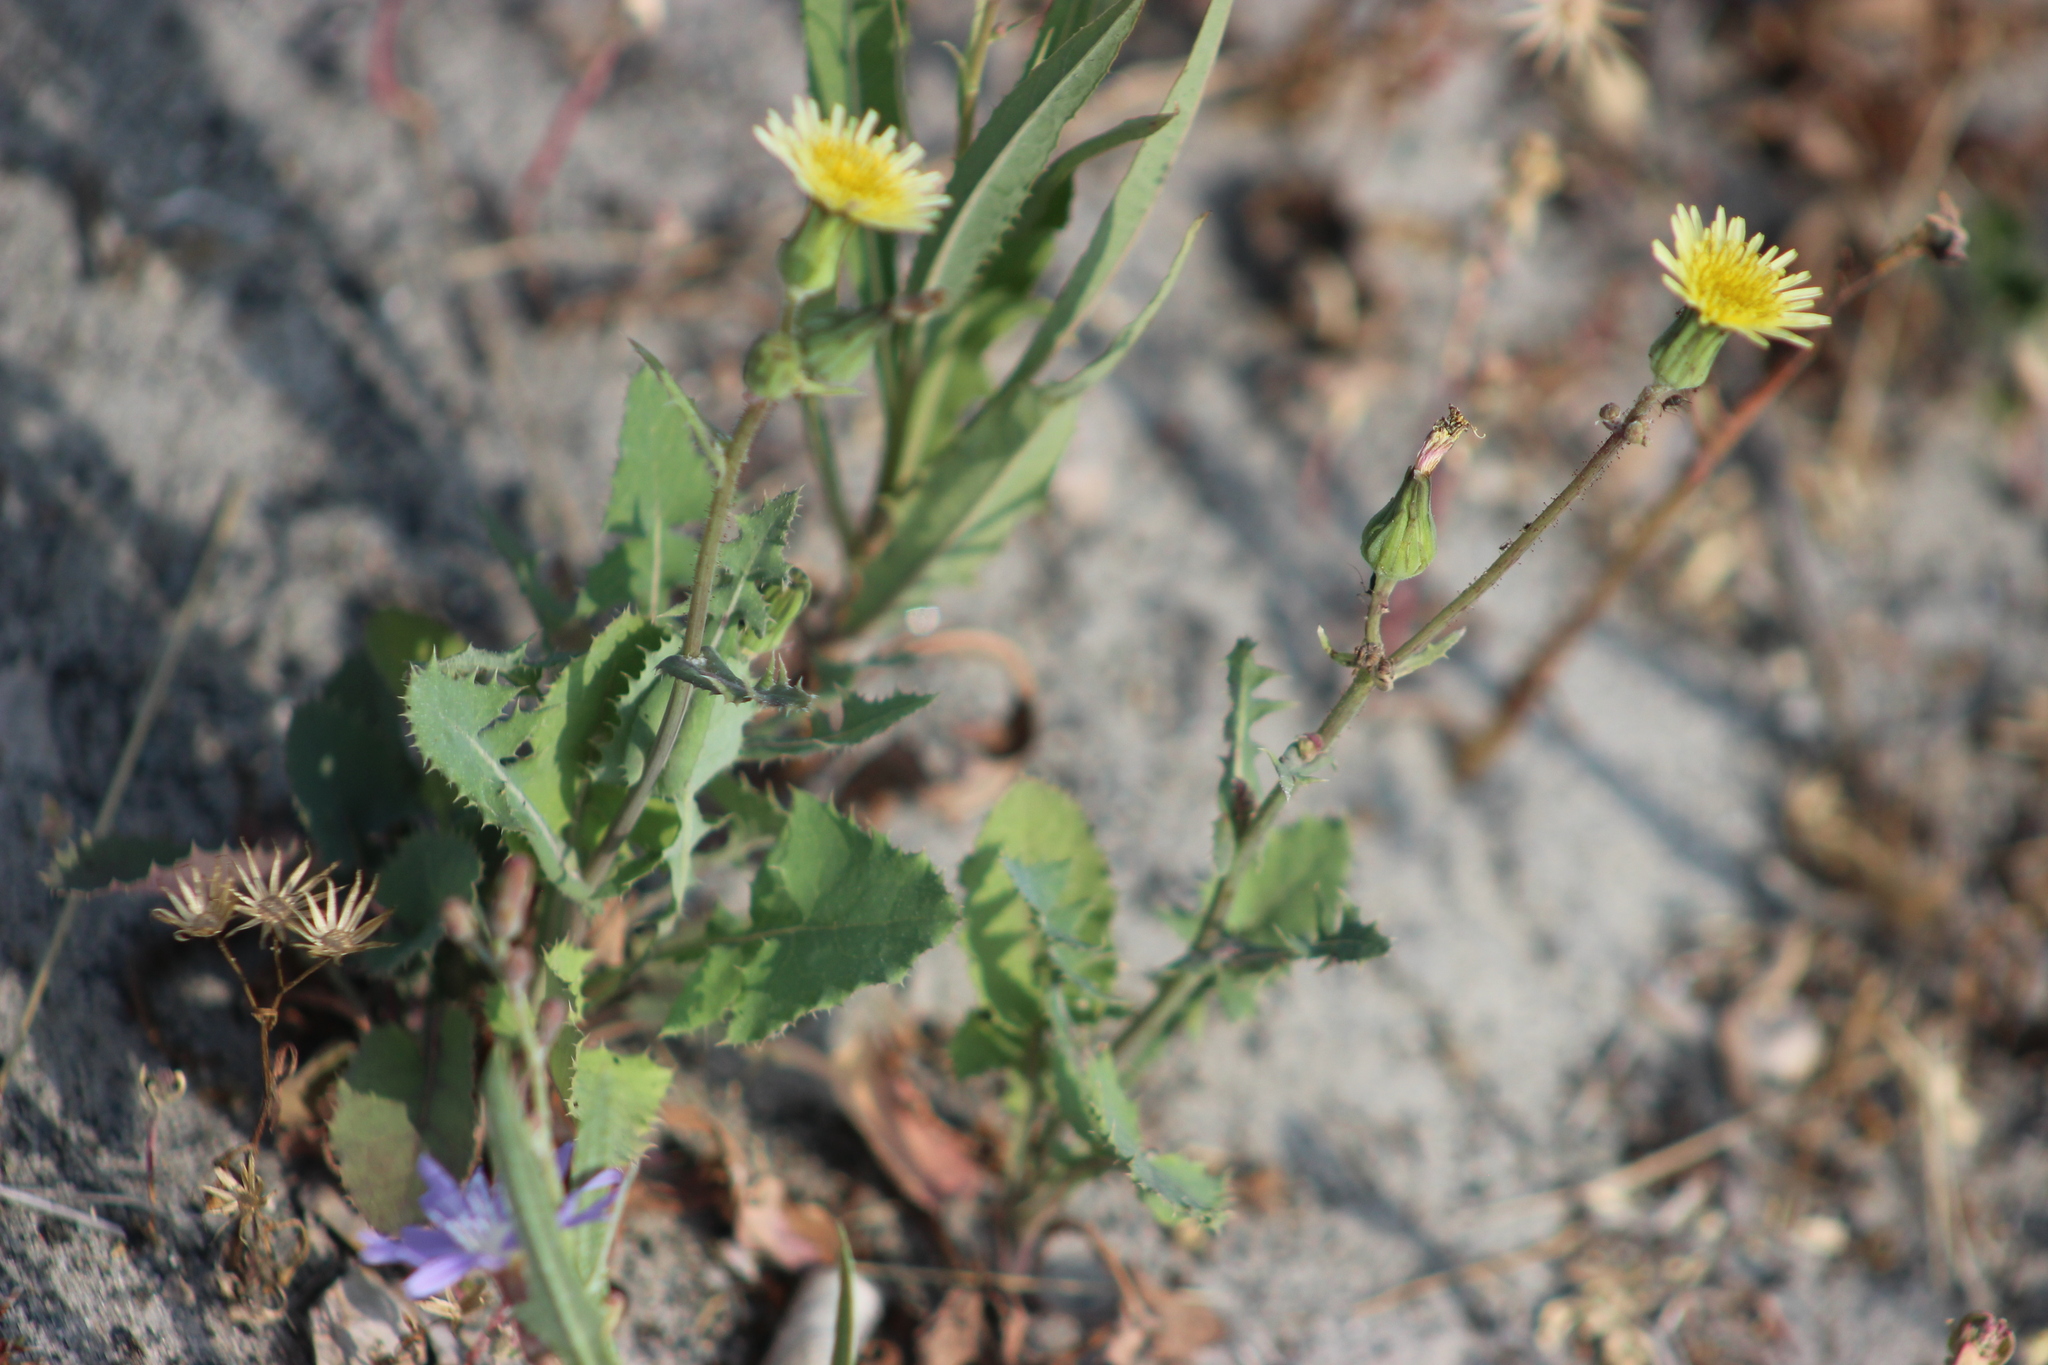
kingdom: Plantae
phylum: Tracheophyta
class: Magnoliopsida
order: Asterales
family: Asteraceae
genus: Sonchus
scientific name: Sonchus oleraceus
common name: Common sowthistle
